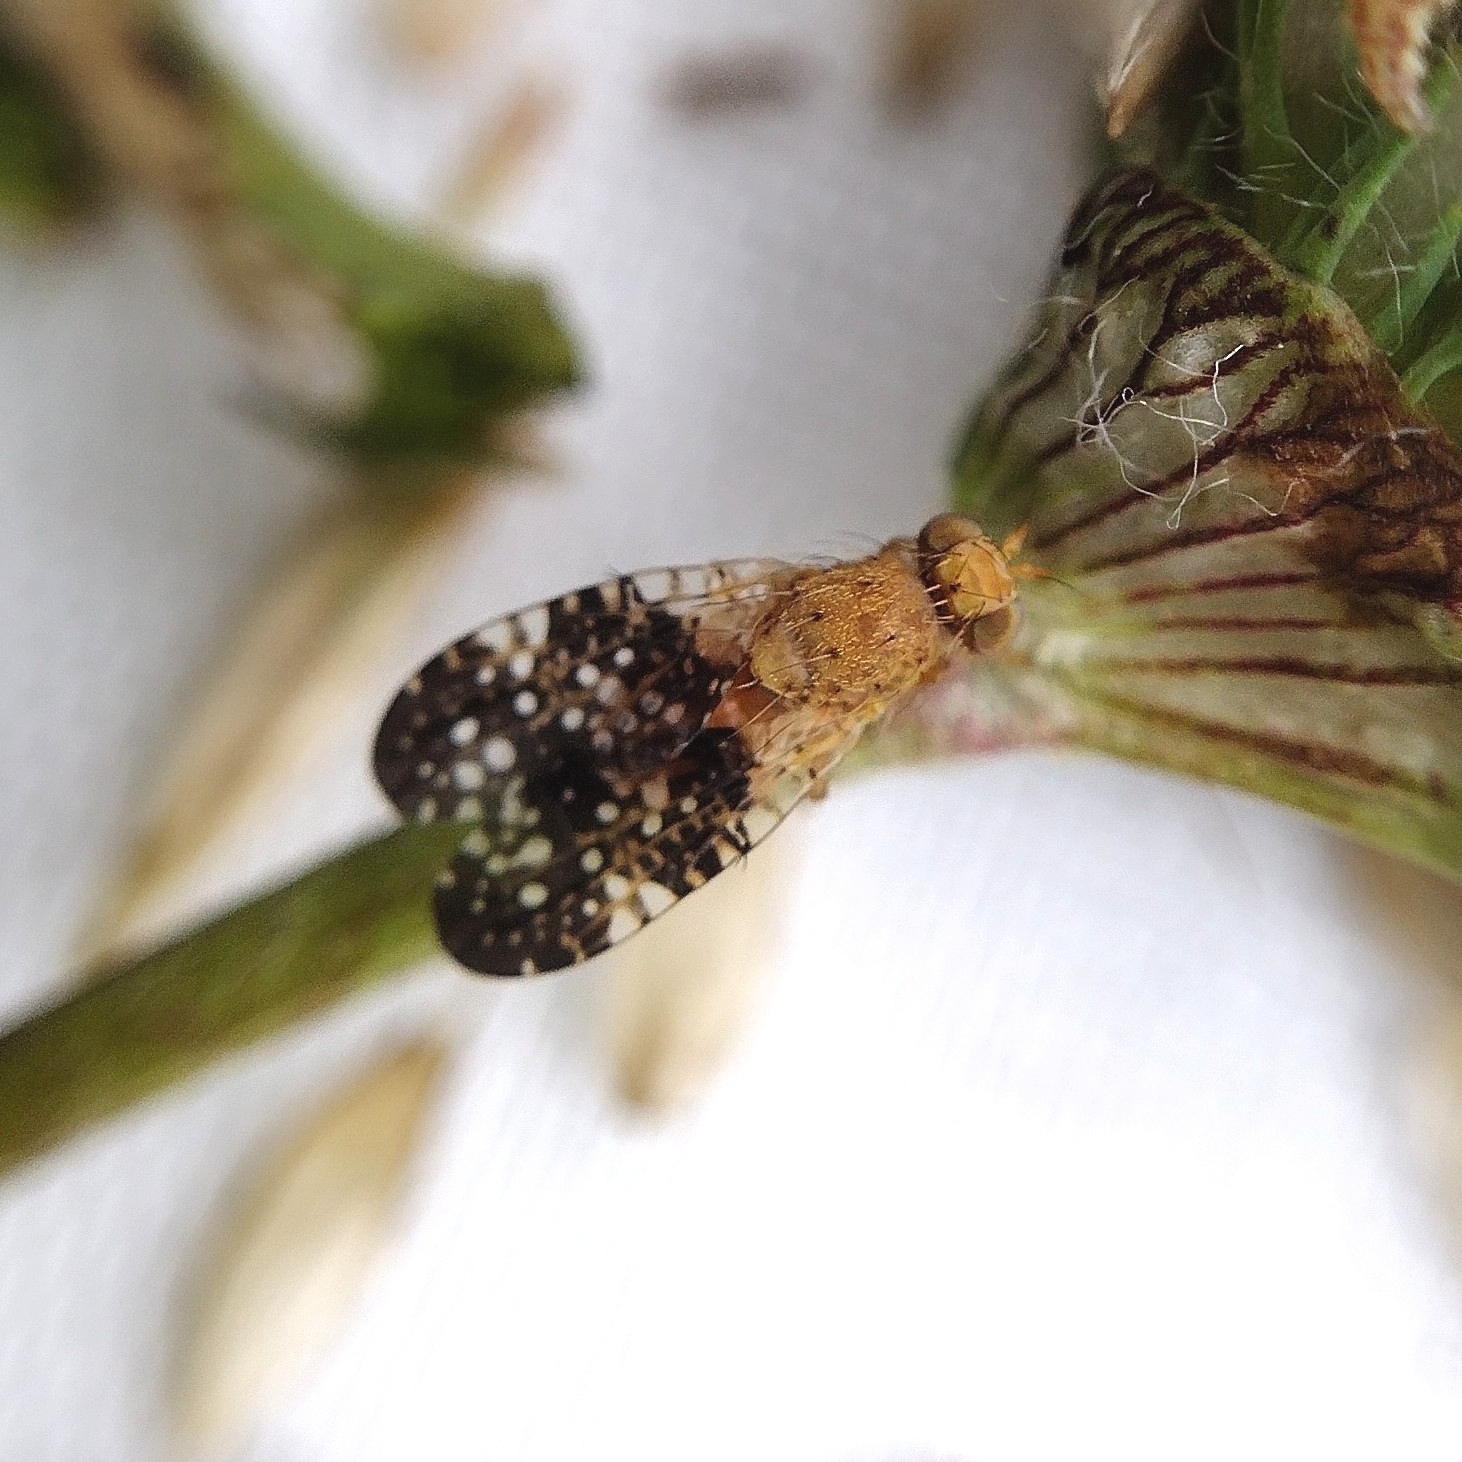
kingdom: Animalia
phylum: Arthropoda
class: Insecta
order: Diptera
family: Tephritidae
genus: Acinia
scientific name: Acinia corniculata
